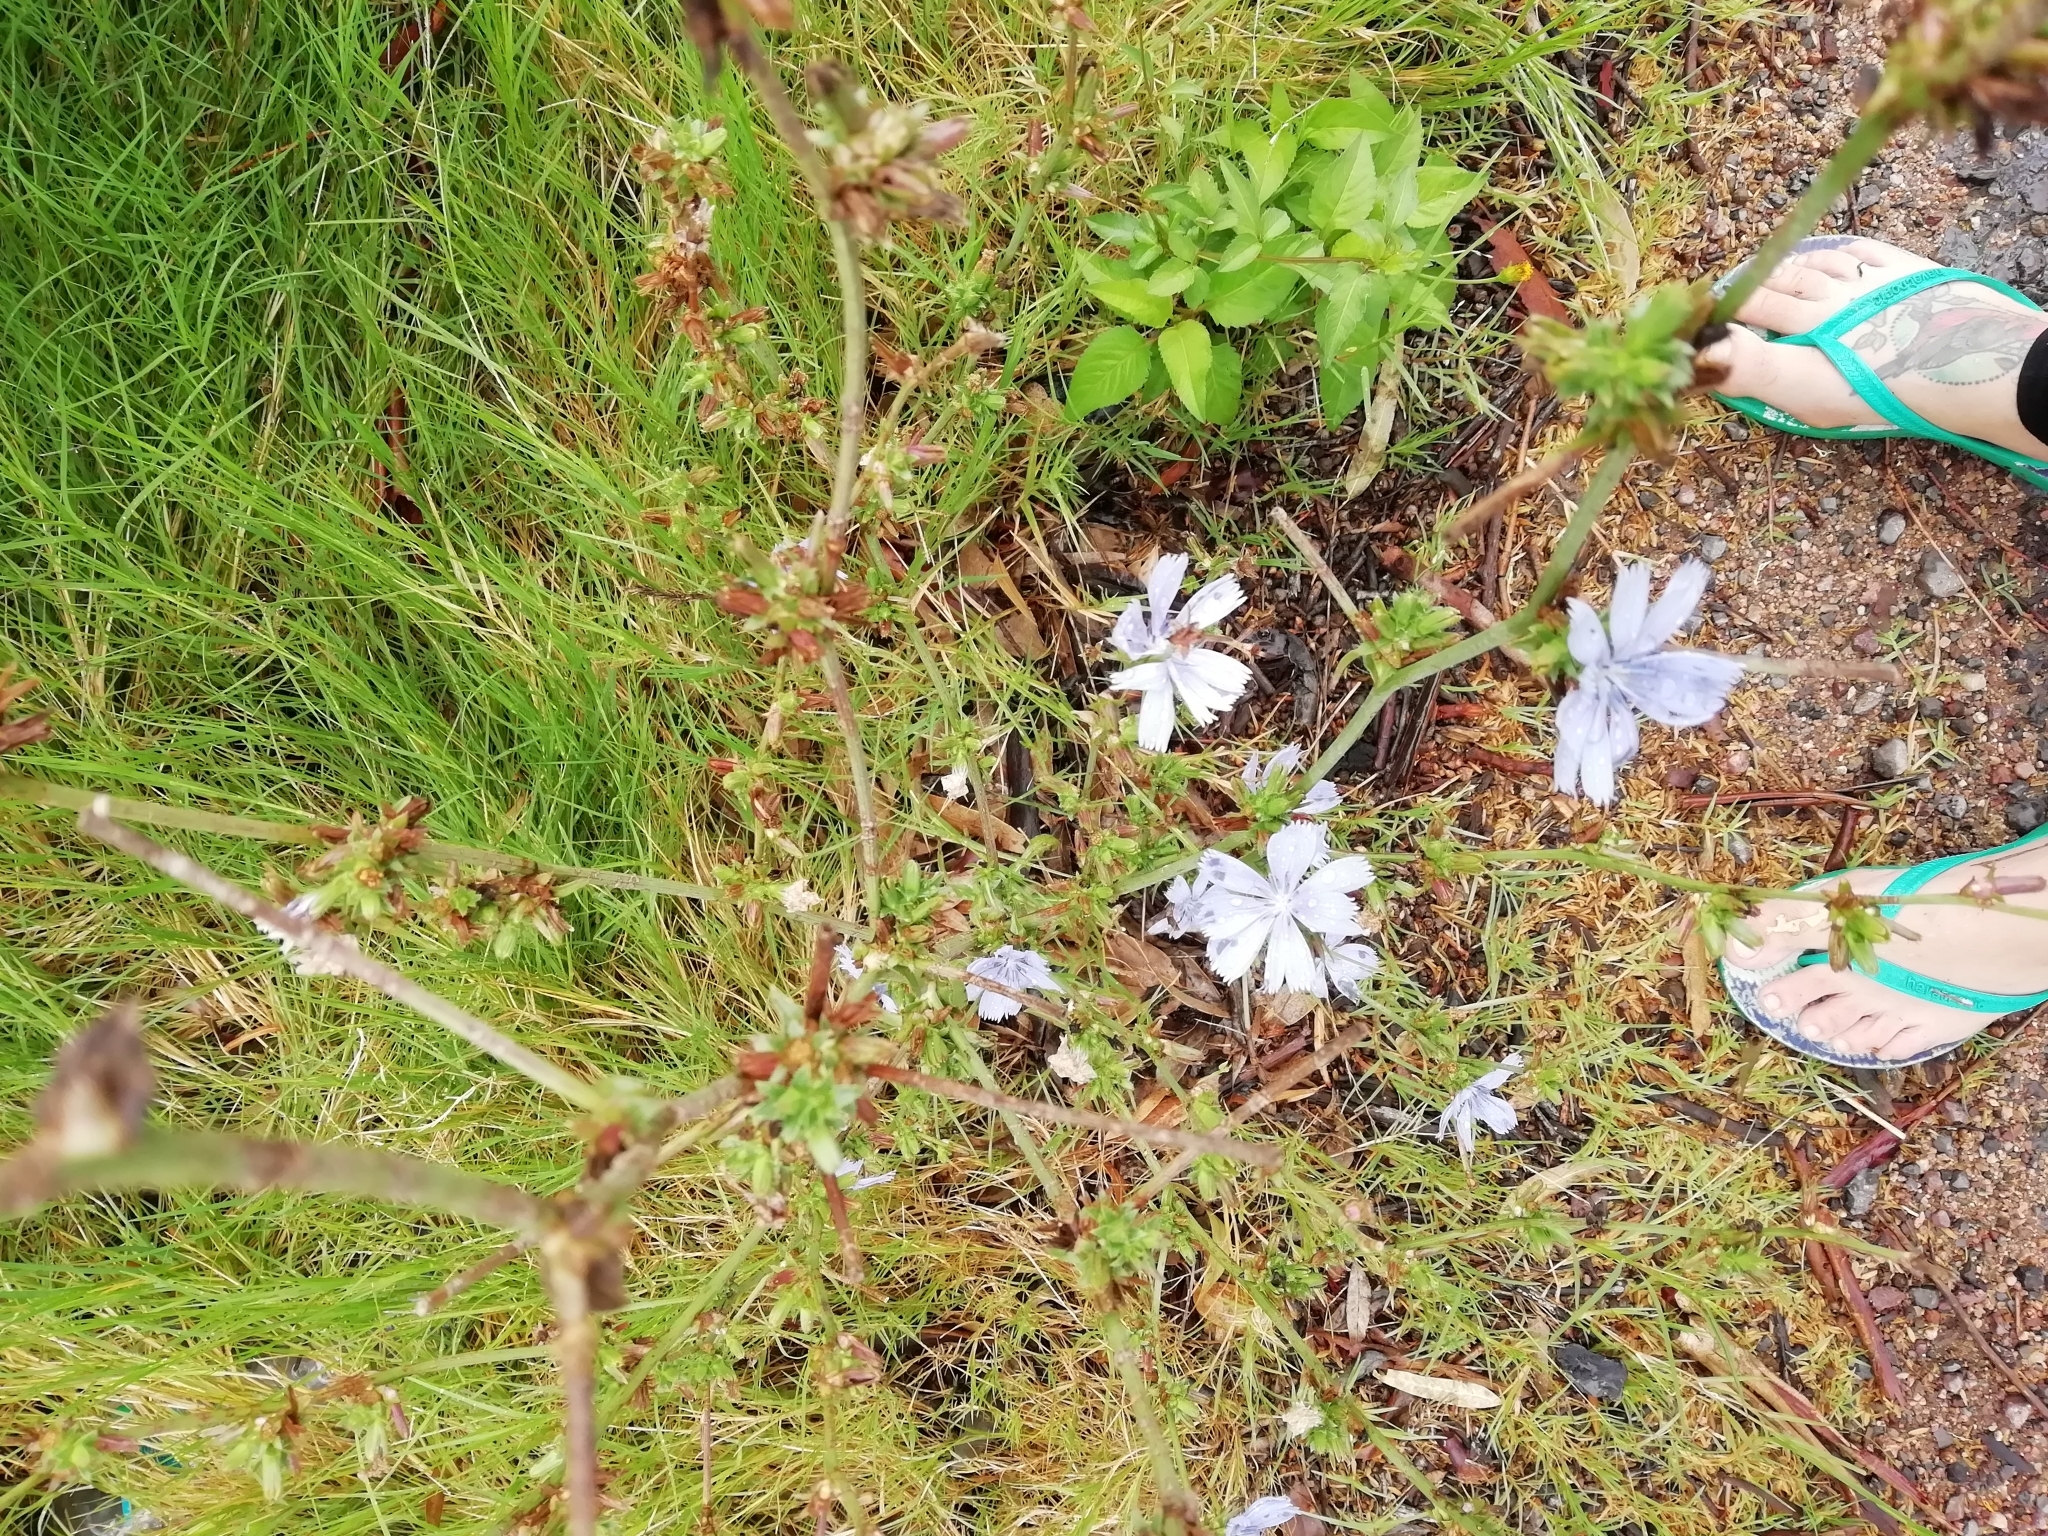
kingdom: Plantae
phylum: Tracheophyta
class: Magnoliopsida
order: Asterales
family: Asteraceae
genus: Cichorium
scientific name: Cichorium intybus
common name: Chicory
